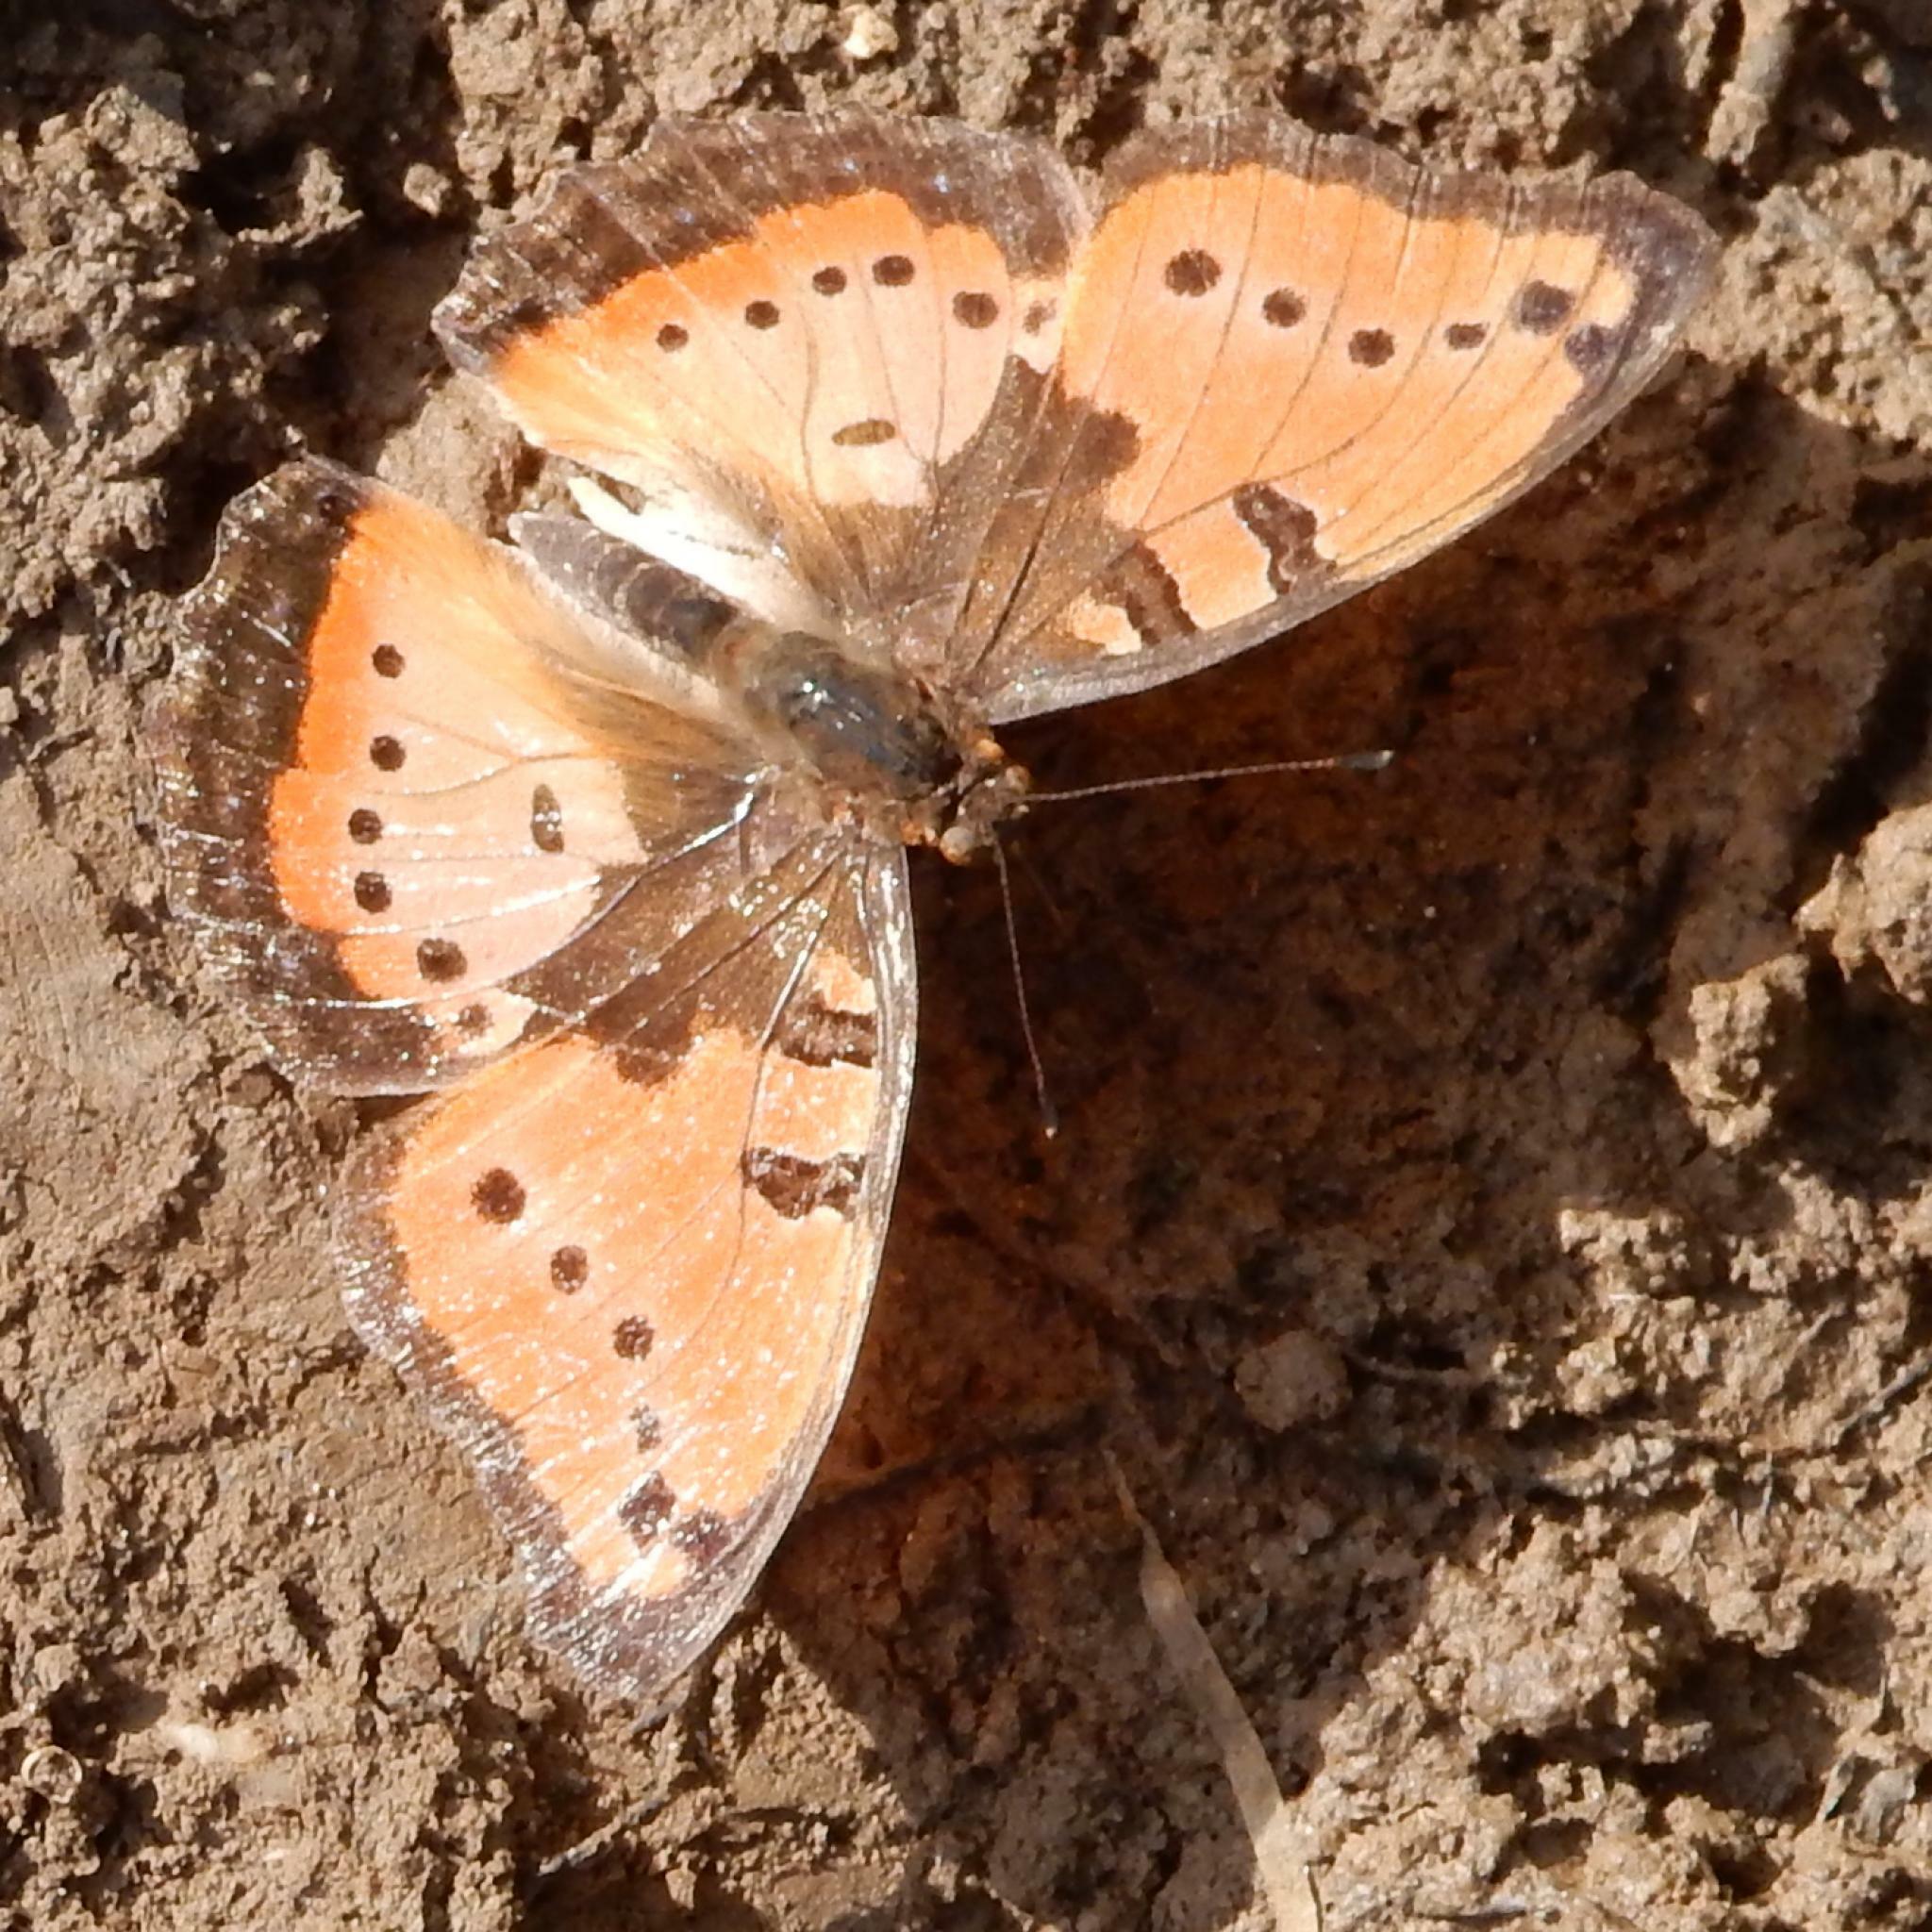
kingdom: Animalia
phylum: Arthropoda
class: Insecta
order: Lepidoptera
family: Nymphalidae
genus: Precis
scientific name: Precis octavia
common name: Gaudy commodore
